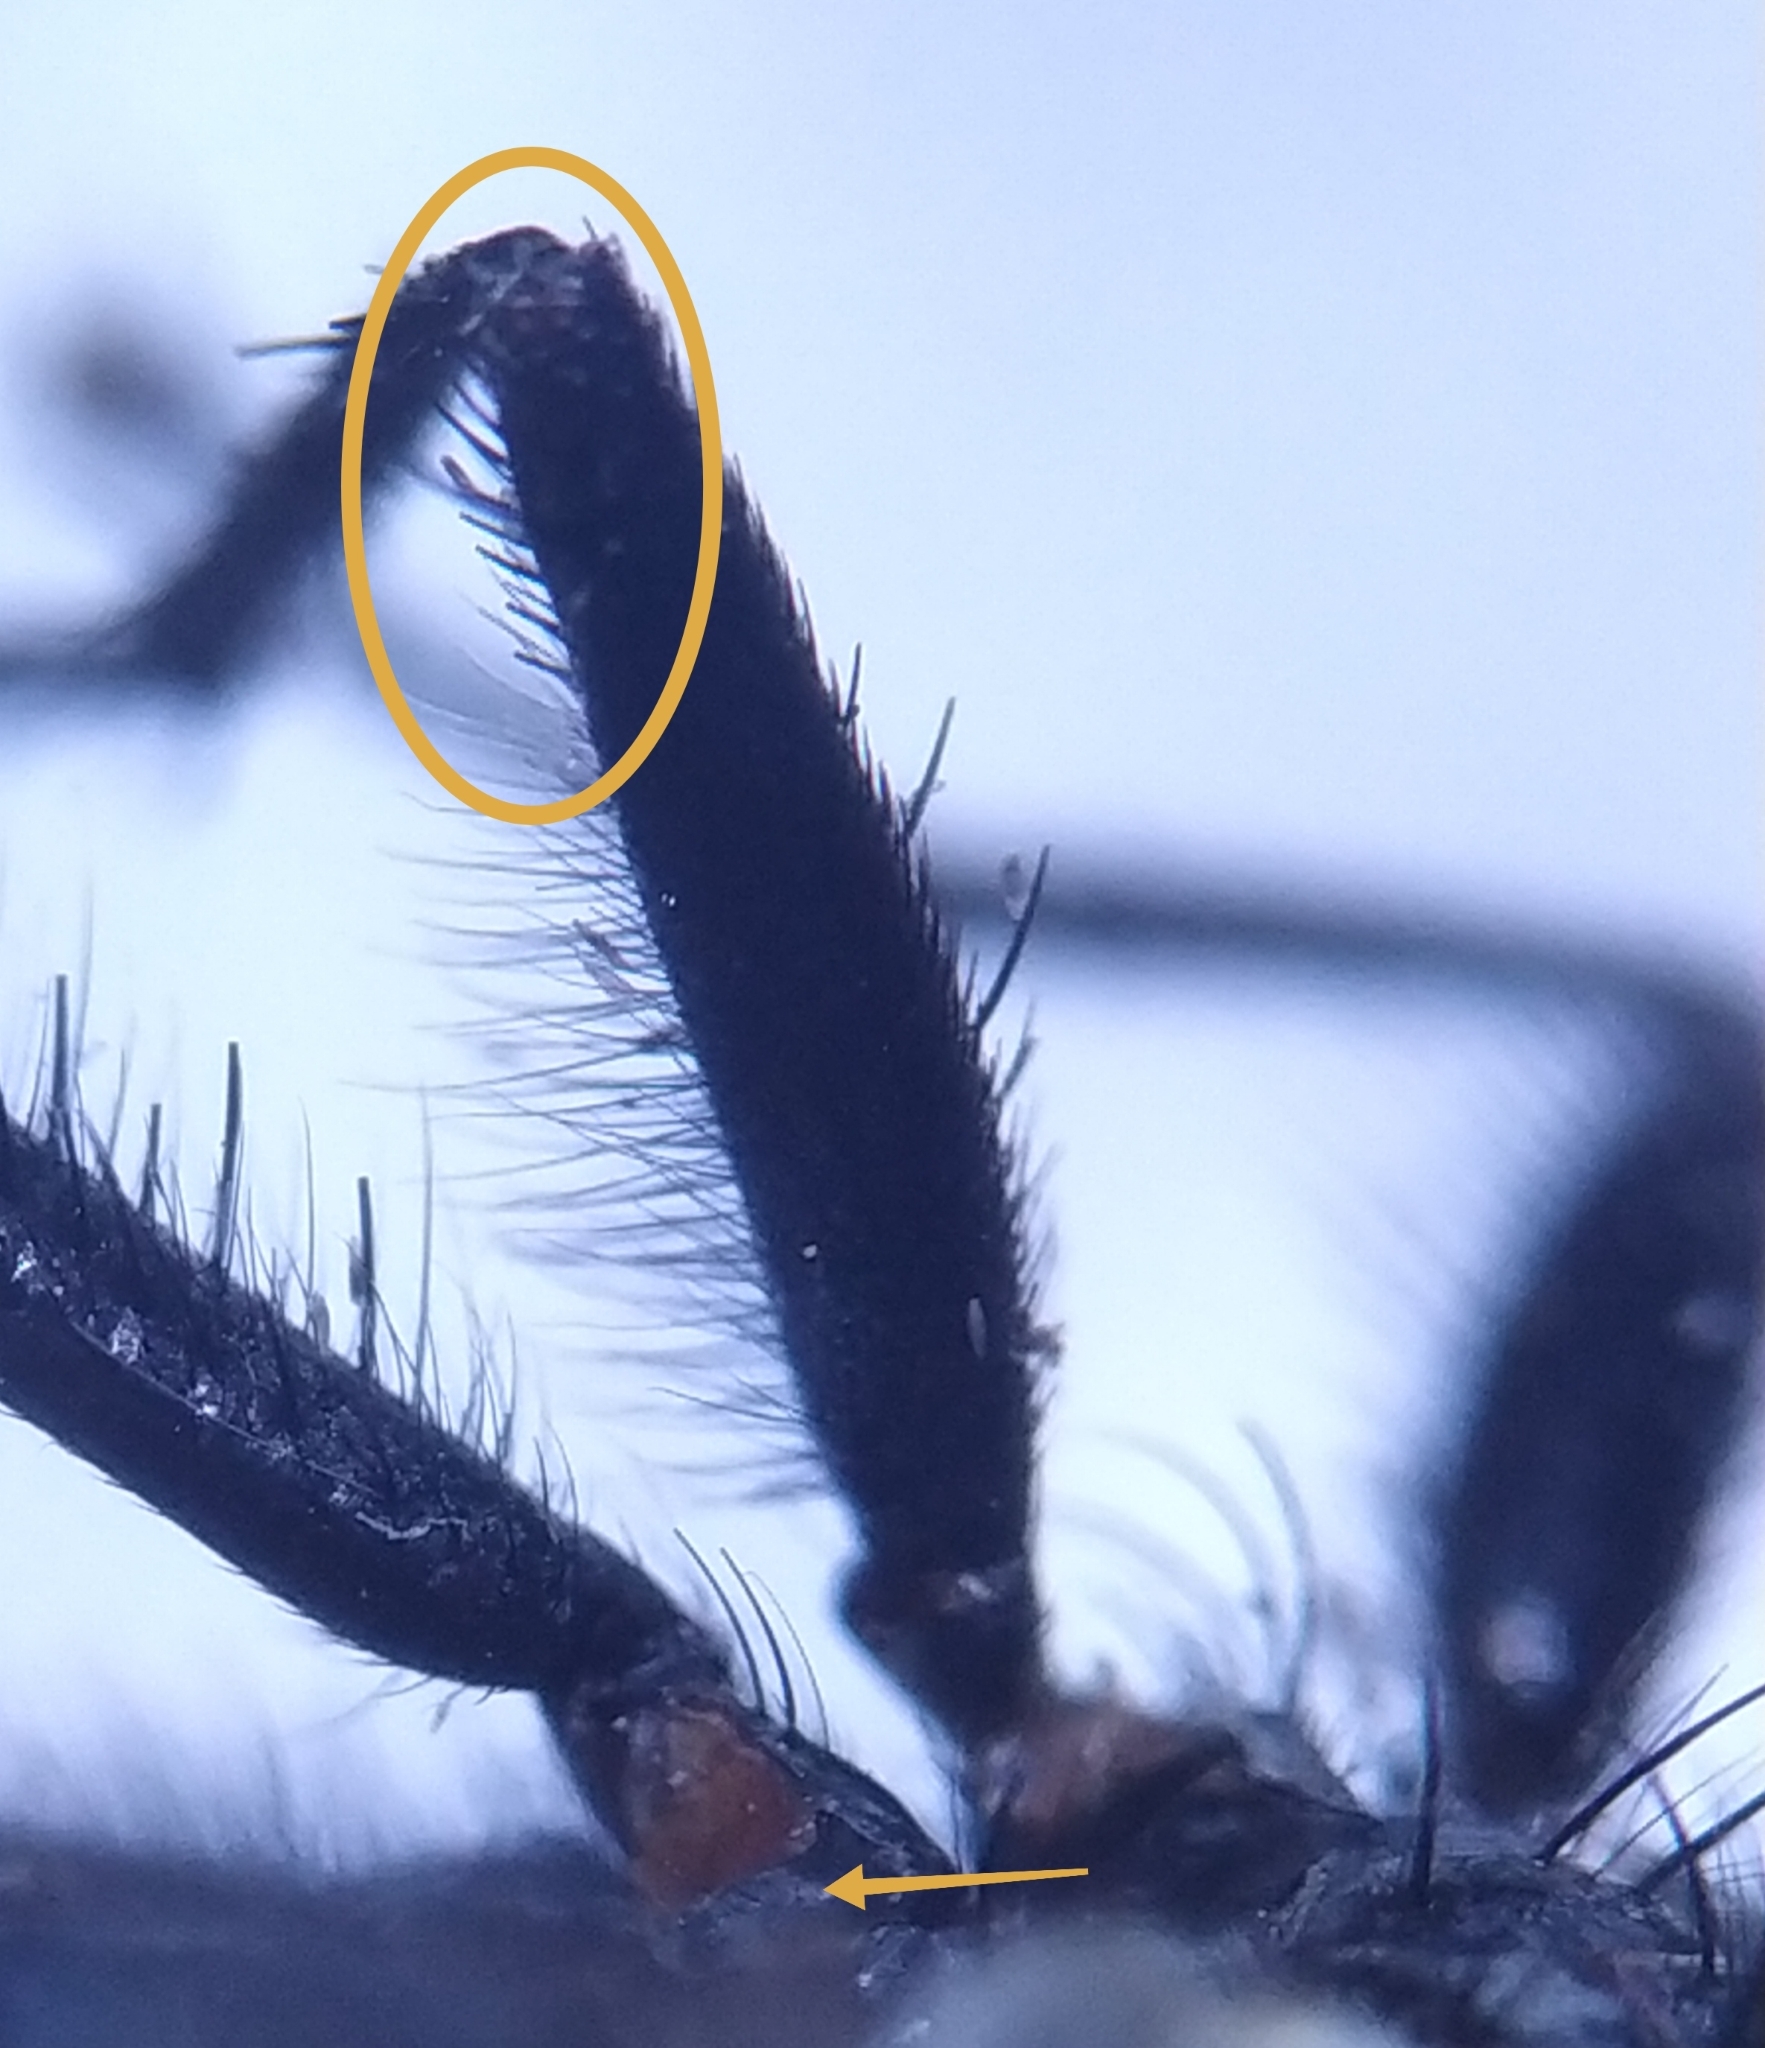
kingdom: Animalia
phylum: Arthropoda
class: Insecta
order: Diptera
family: Sarcophagidae
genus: Sarcophaga
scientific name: Sarcophaga variegata
